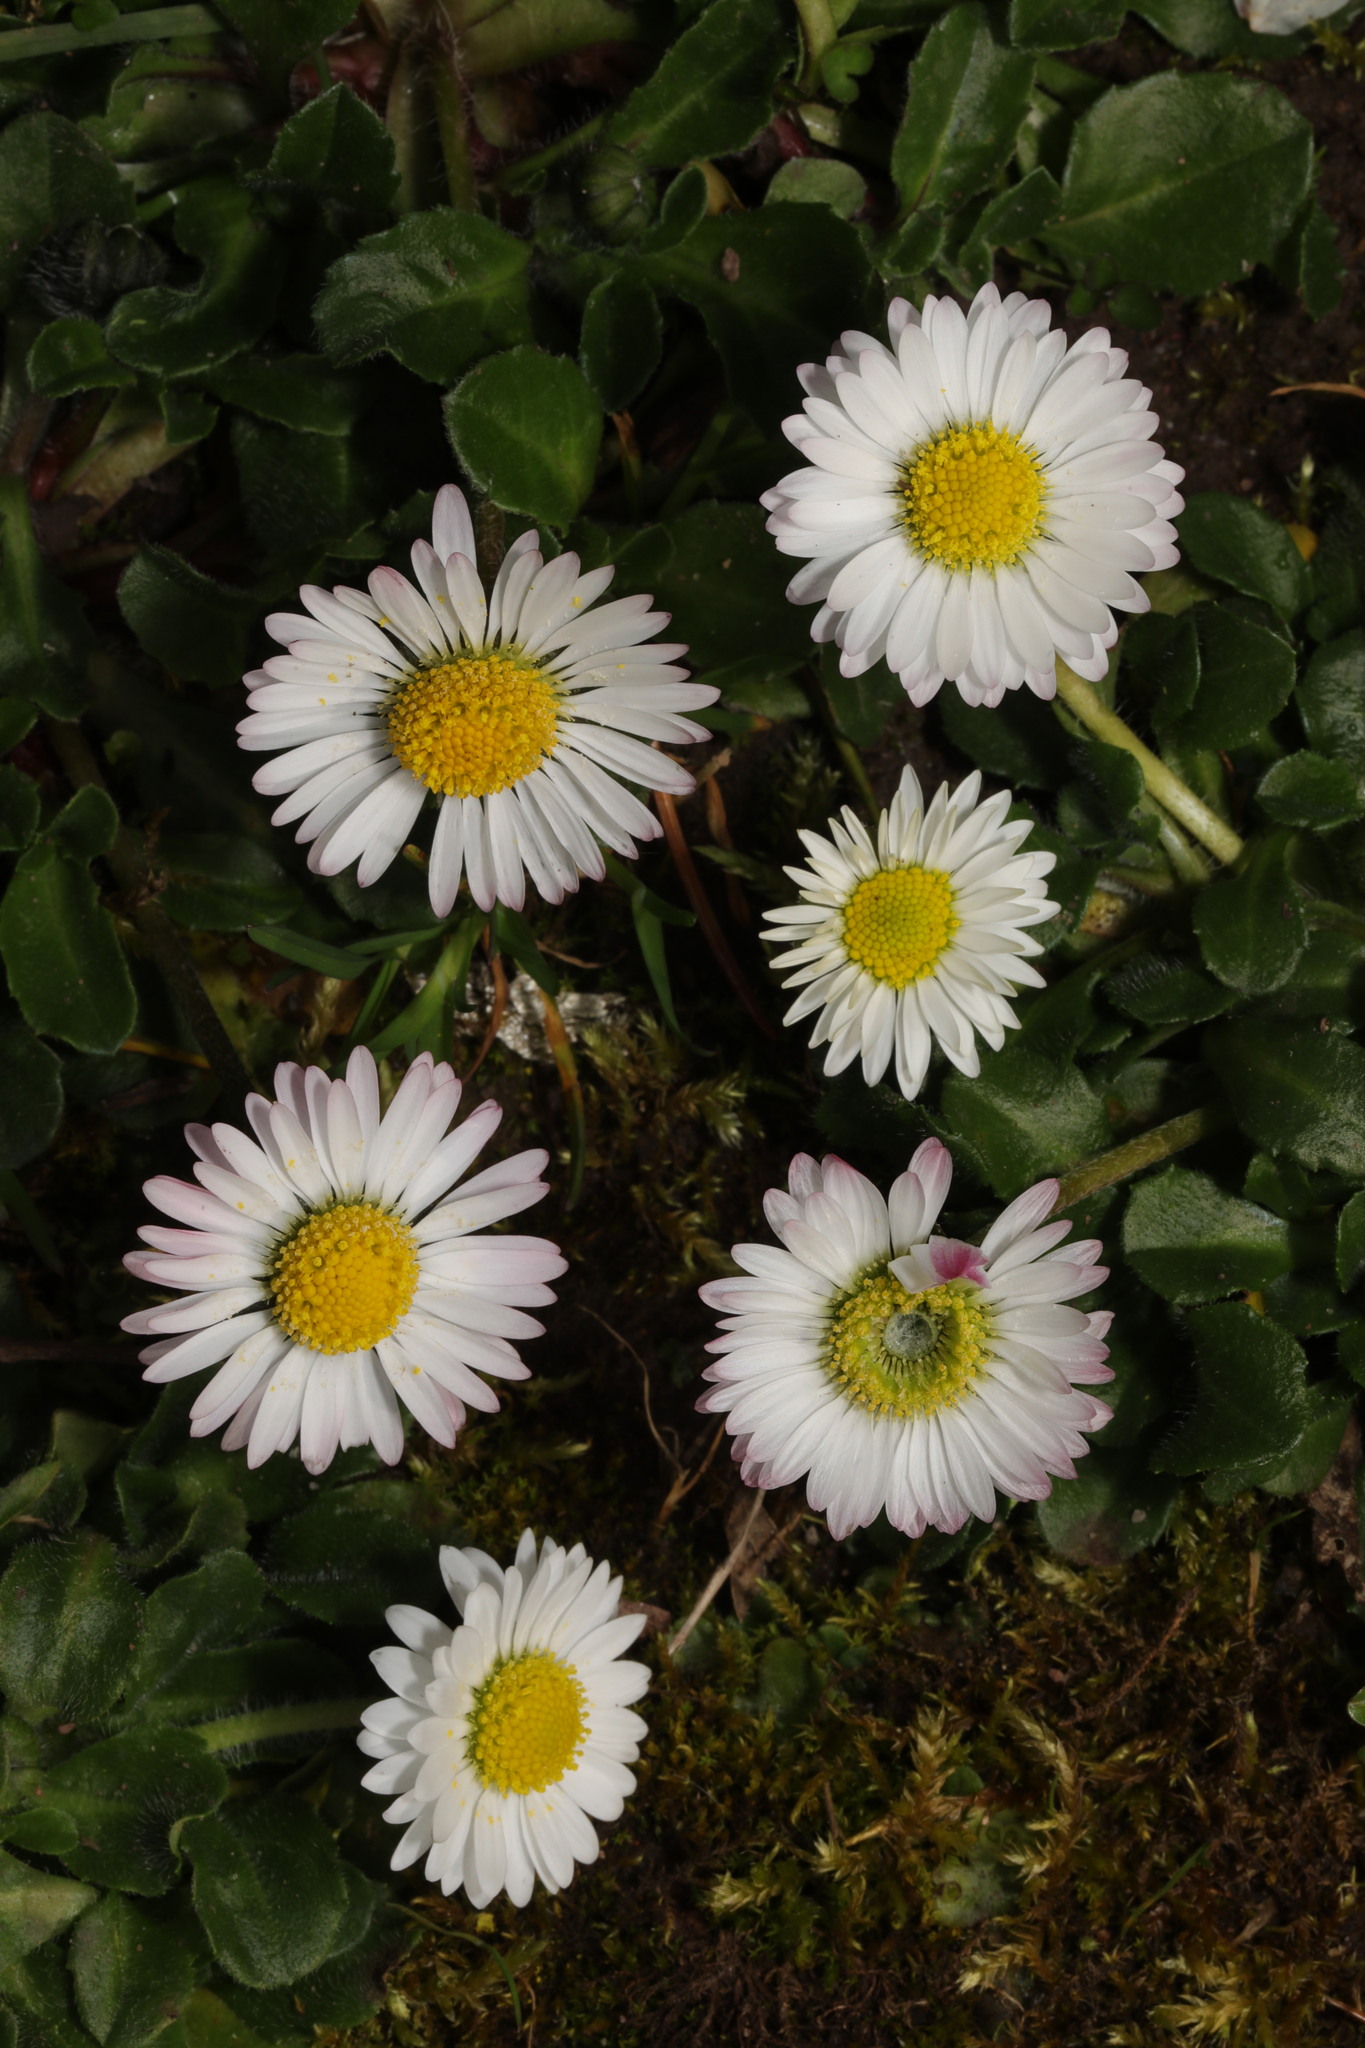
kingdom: Plantae
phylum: Tracheophyta
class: Magnoliopsida
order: Asterales
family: Asteraceae
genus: Bellis
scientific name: Bellis perennis
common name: Lawndaisy
